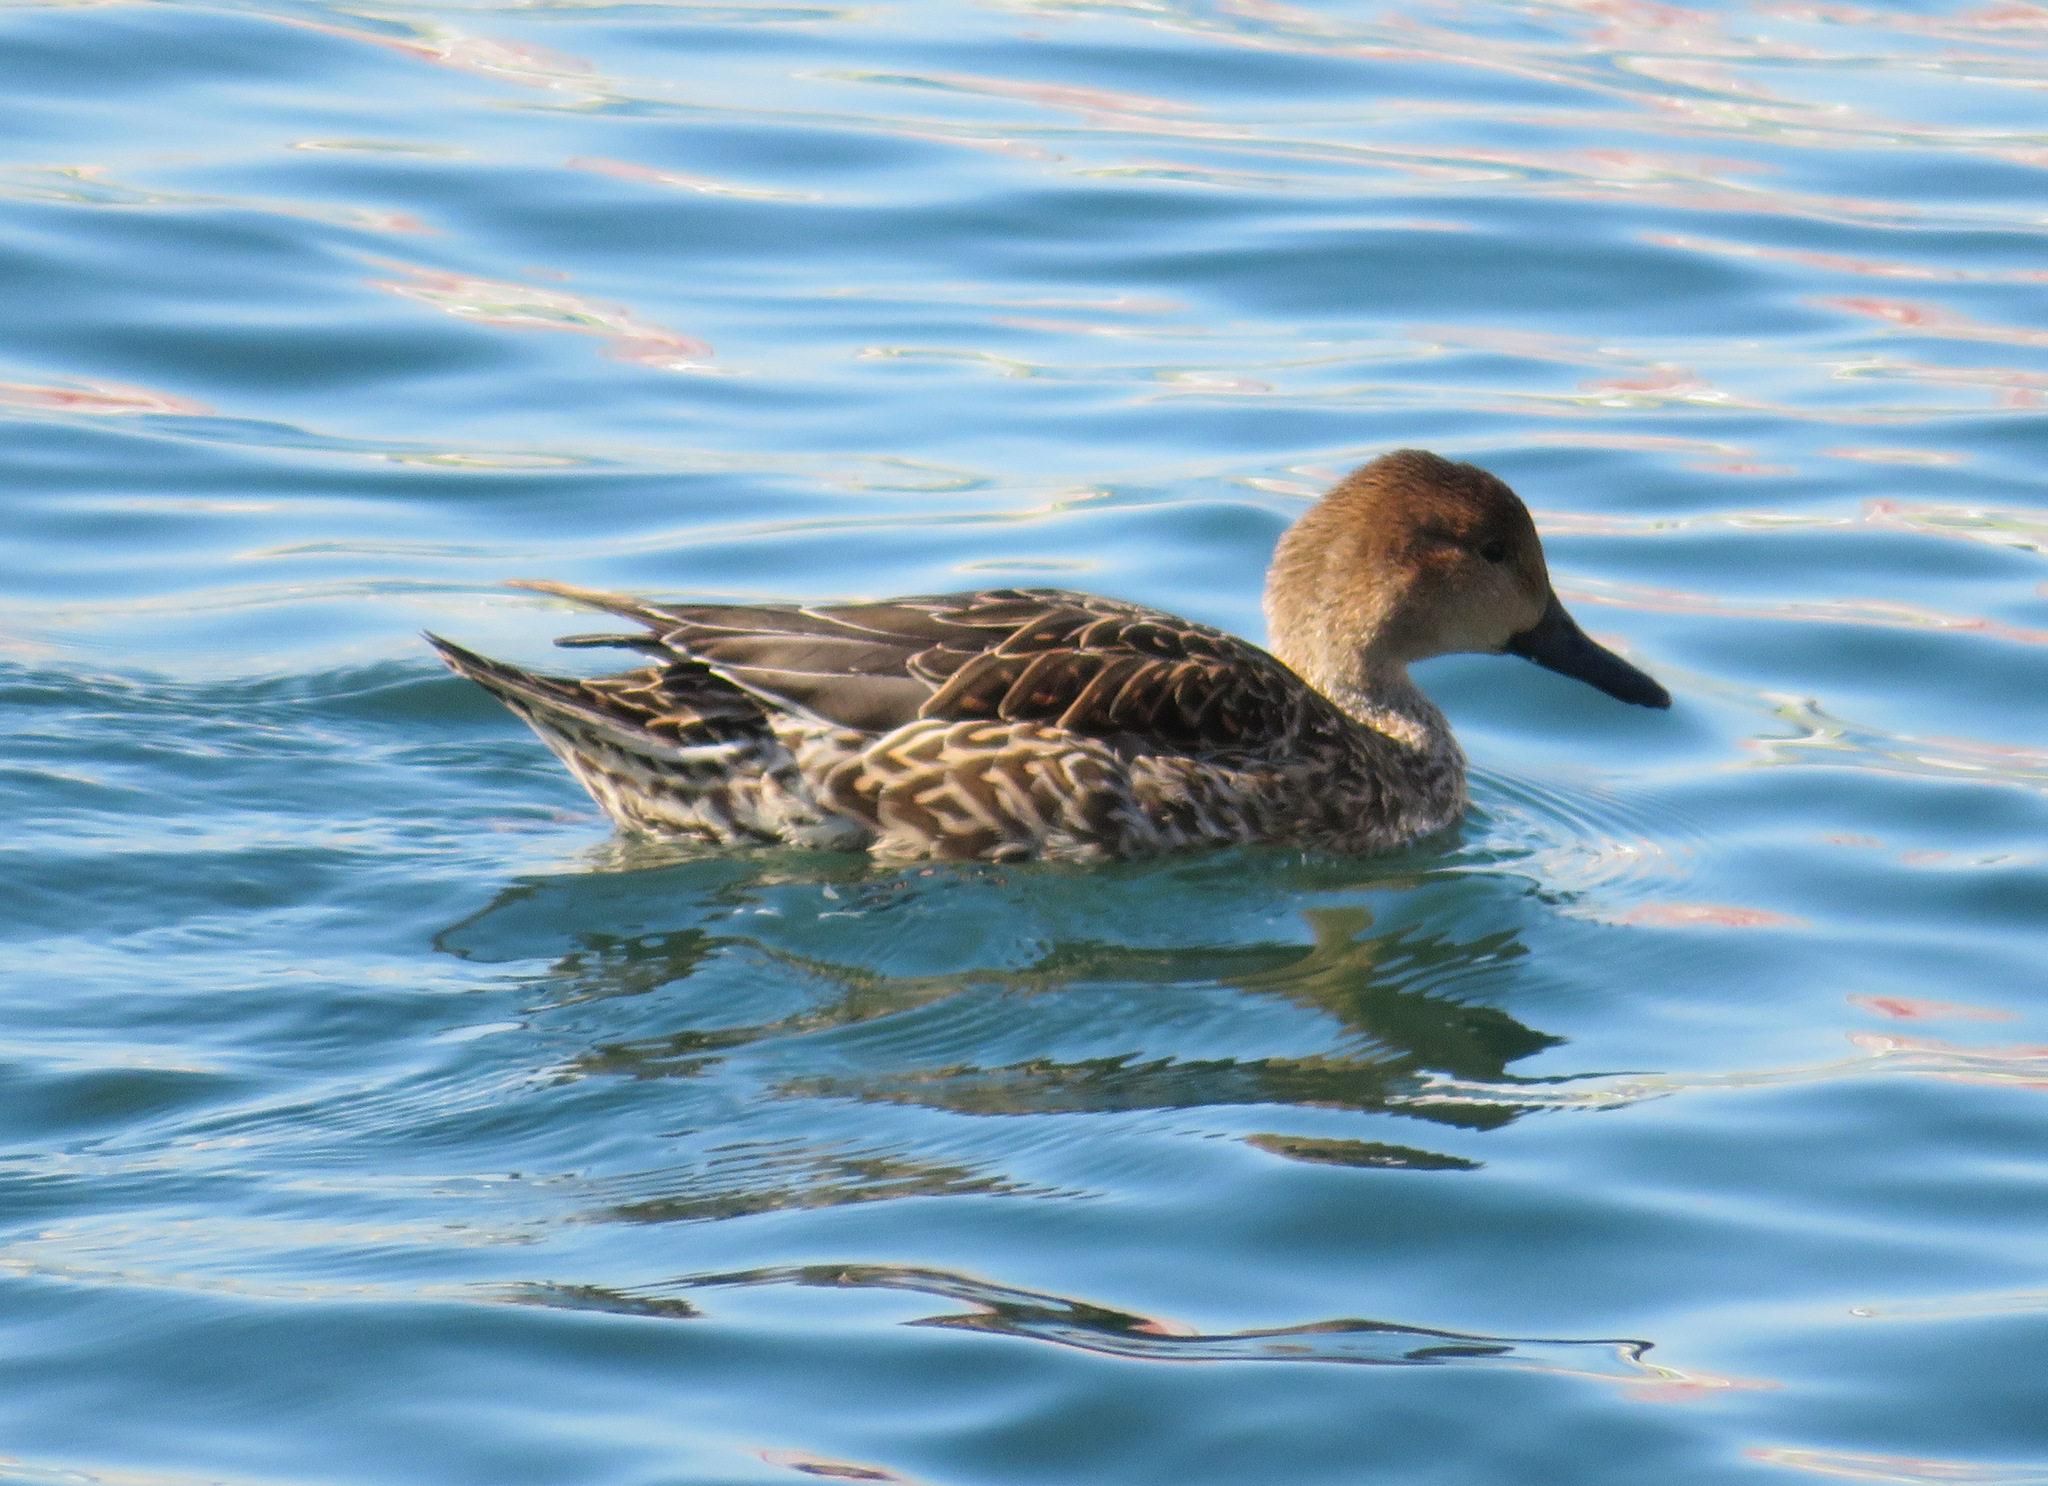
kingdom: Animalia
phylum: Chordata
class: Aves
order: Anseriformes
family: Anatidae
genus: Anas
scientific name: Anas acuta
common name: Northern pintail
